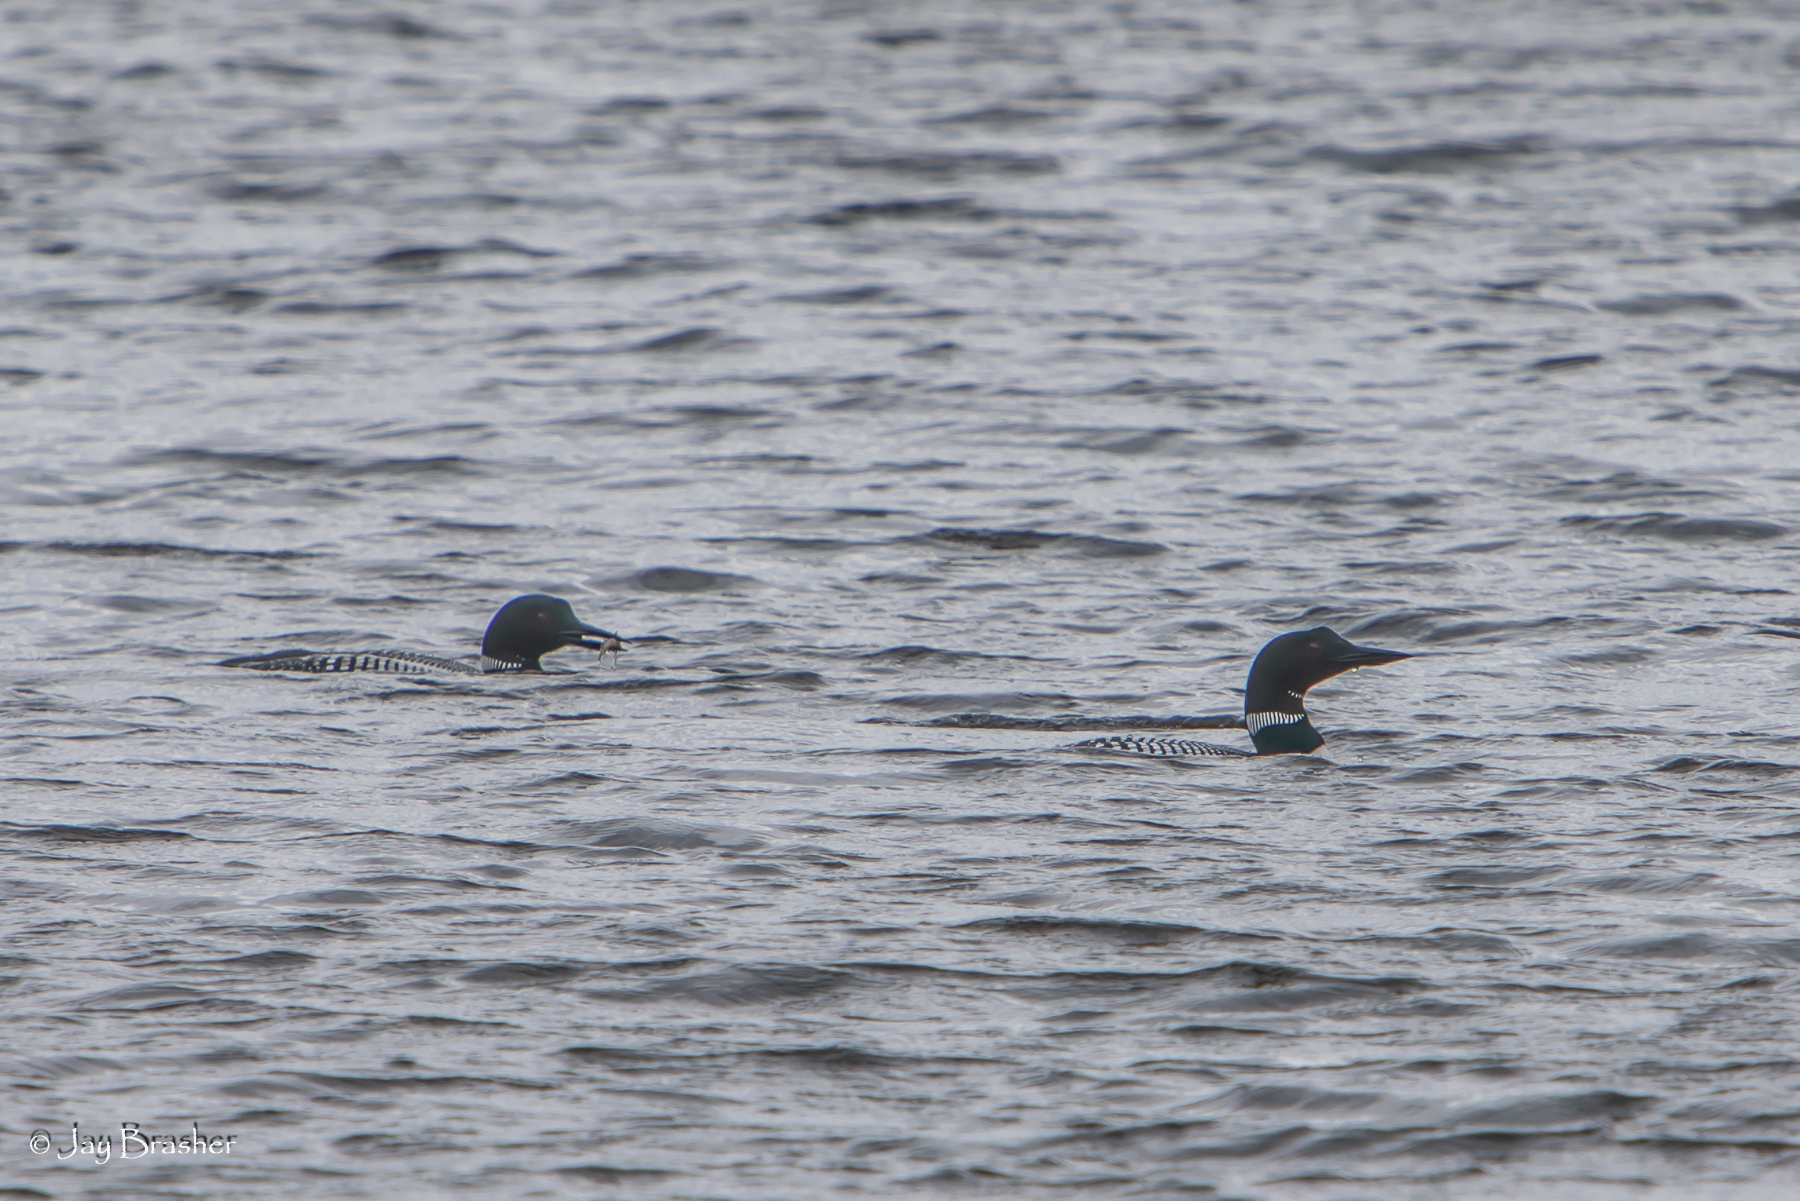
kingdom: Animalia
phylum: Chordata
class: Aves
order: Gaviiformes
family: Gaviidae
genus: Gavia
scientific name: Gavia immer
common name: Common loon
